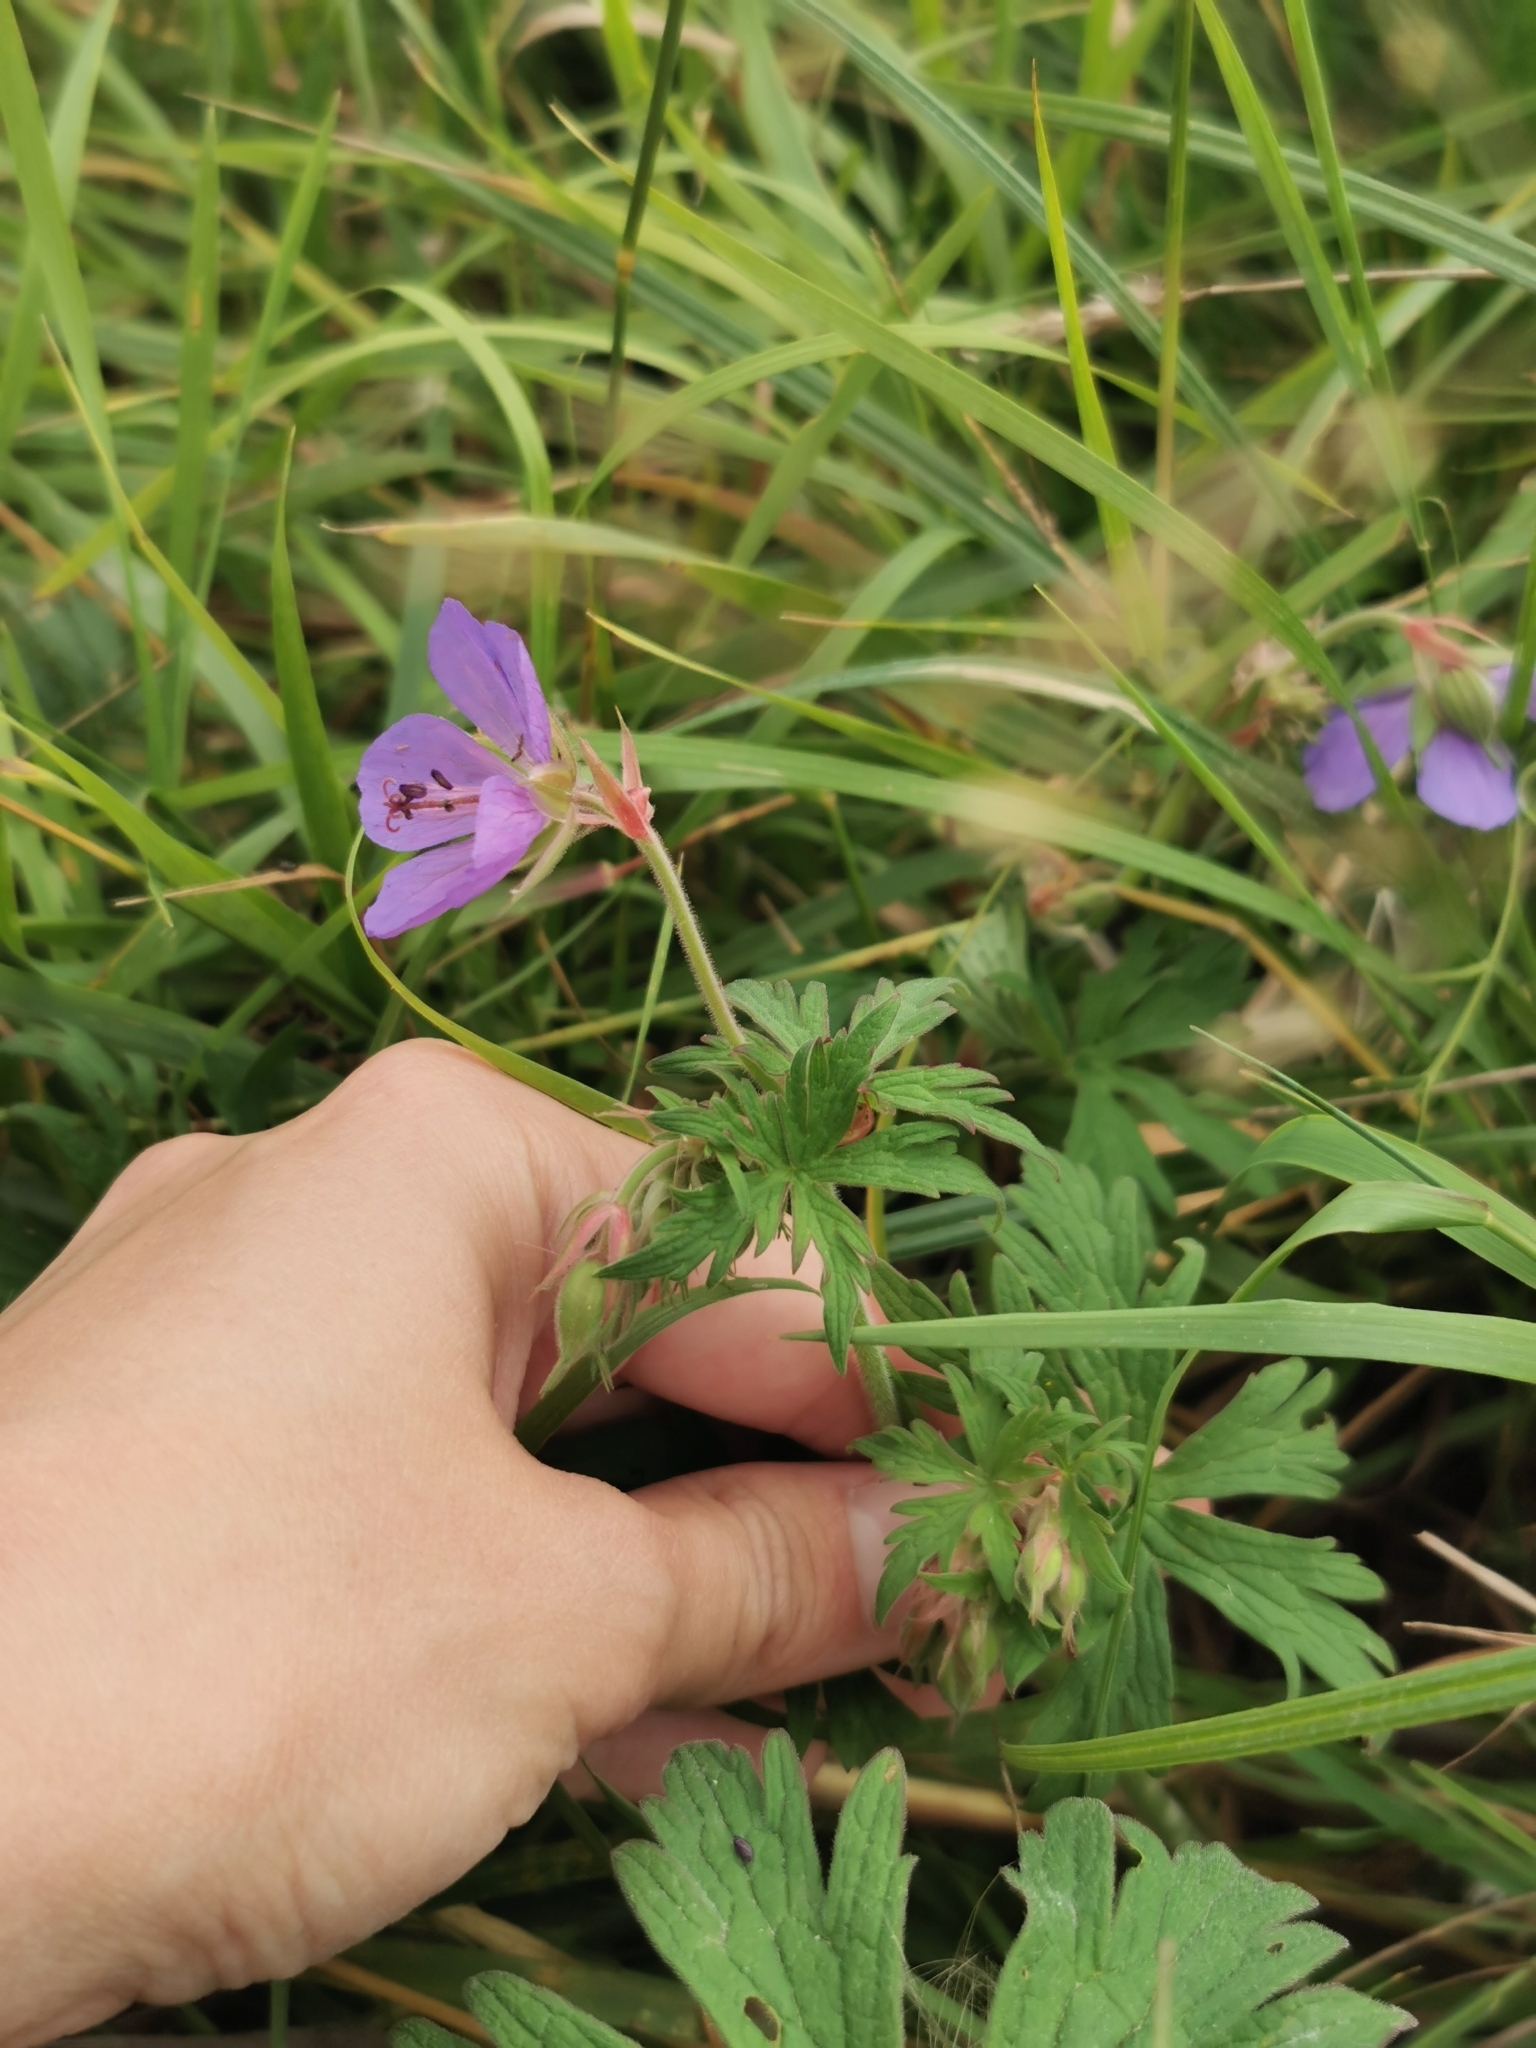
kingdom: Plantae
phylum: Tracheophyta
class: Magnoliopsida
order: Geraniales
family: Geraniaceae
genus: Geranium
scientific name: Geranium pratense
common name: Meadow crane's-bill
